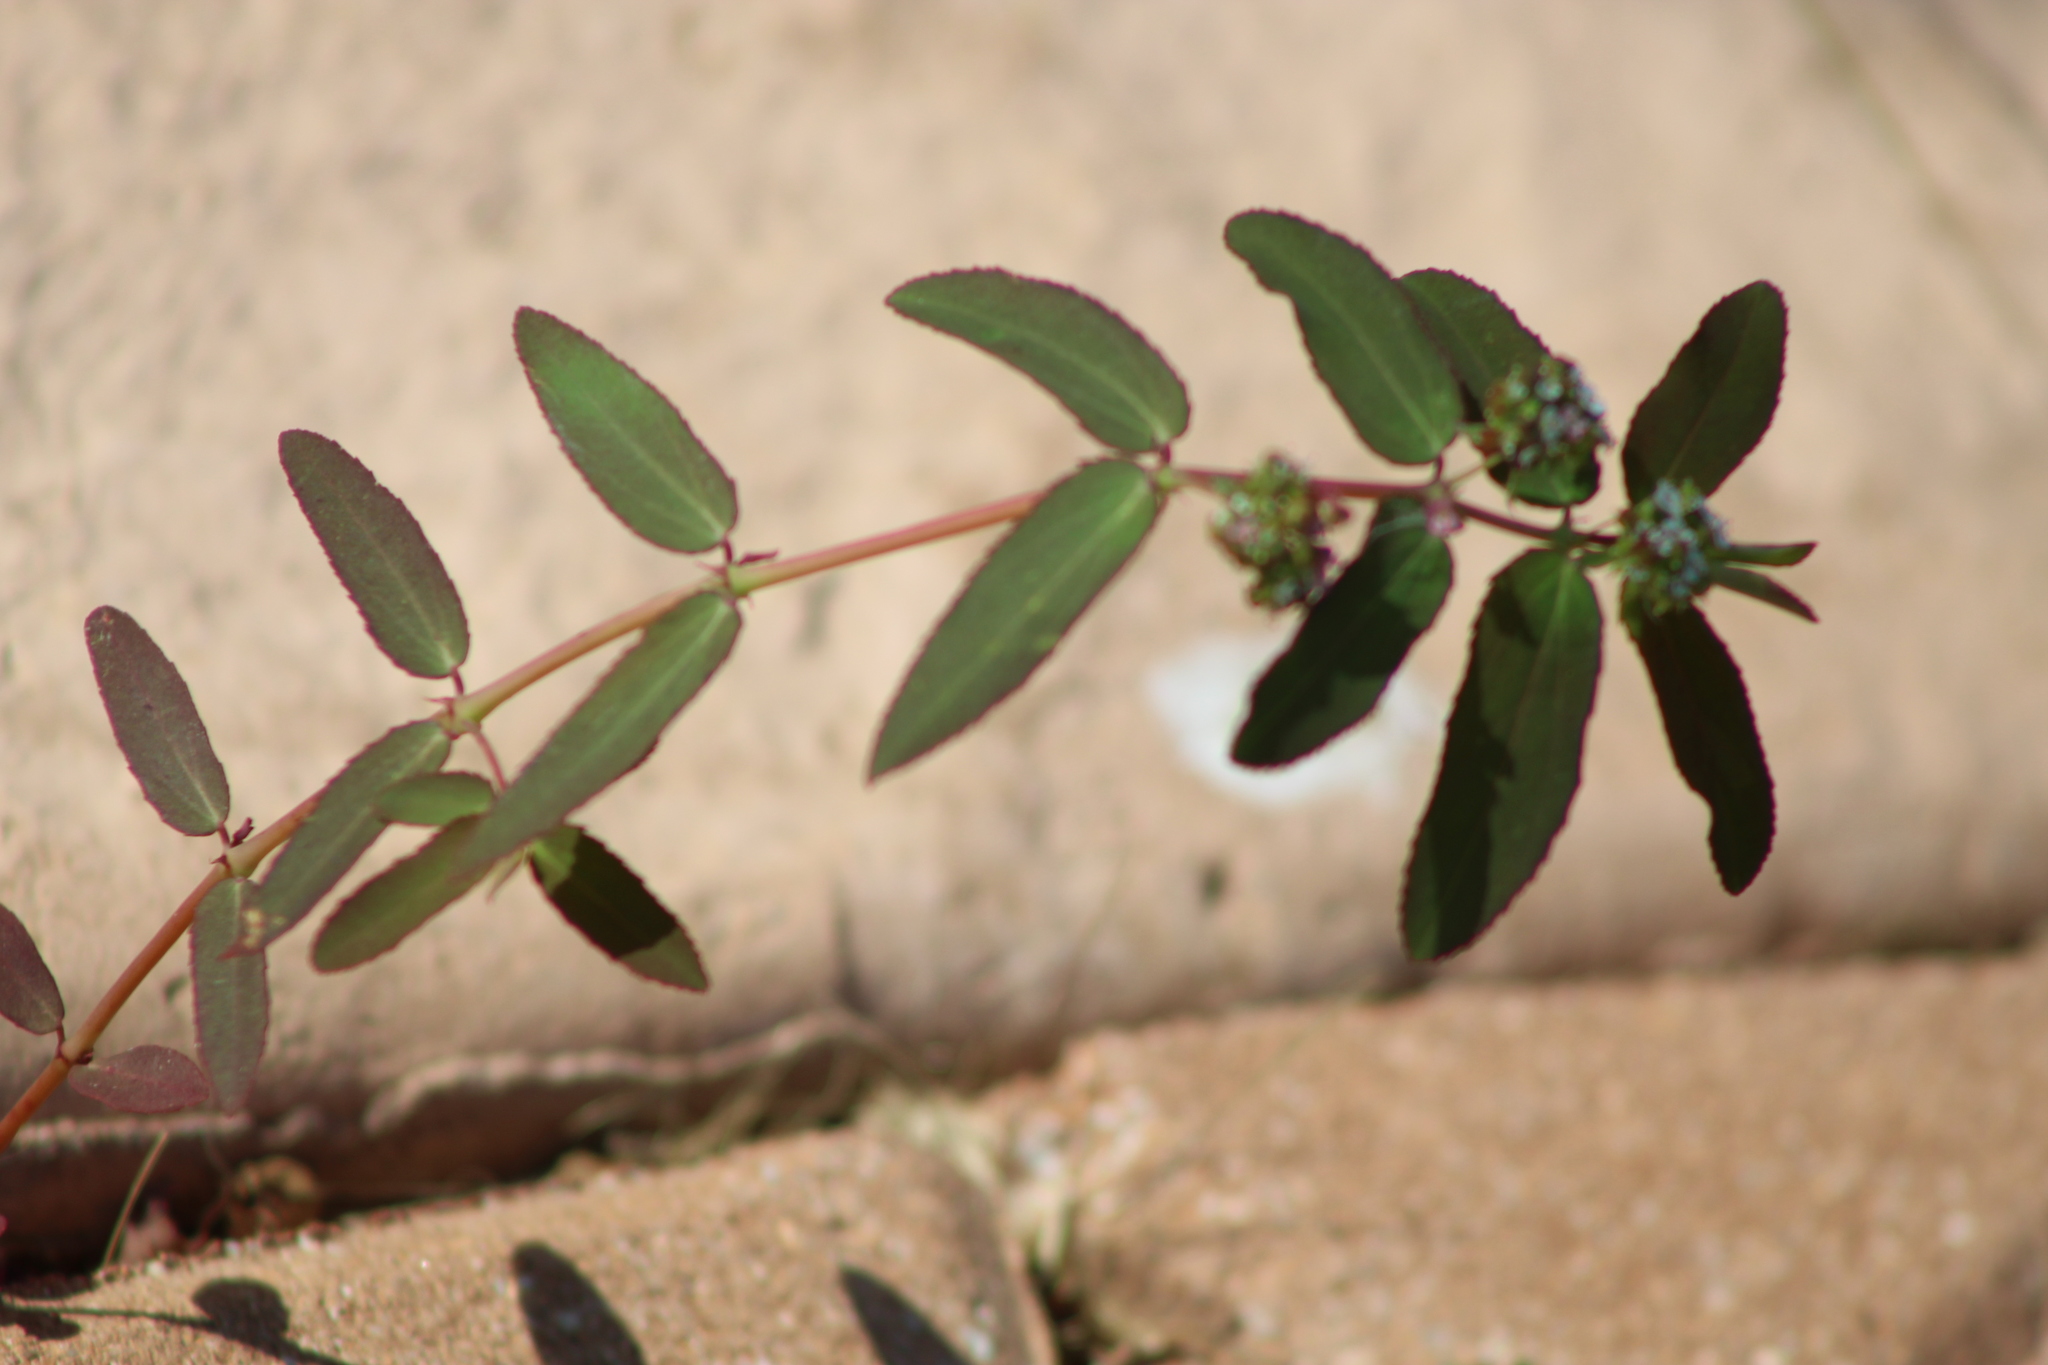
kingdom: Plantae
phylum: Tracheophyta
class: Magnoliopsida
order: Malpighiales
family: Euphorbiaceae
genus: Euphorbia
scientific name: Euphorbia hypericifolia
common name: Graceful sandmat
